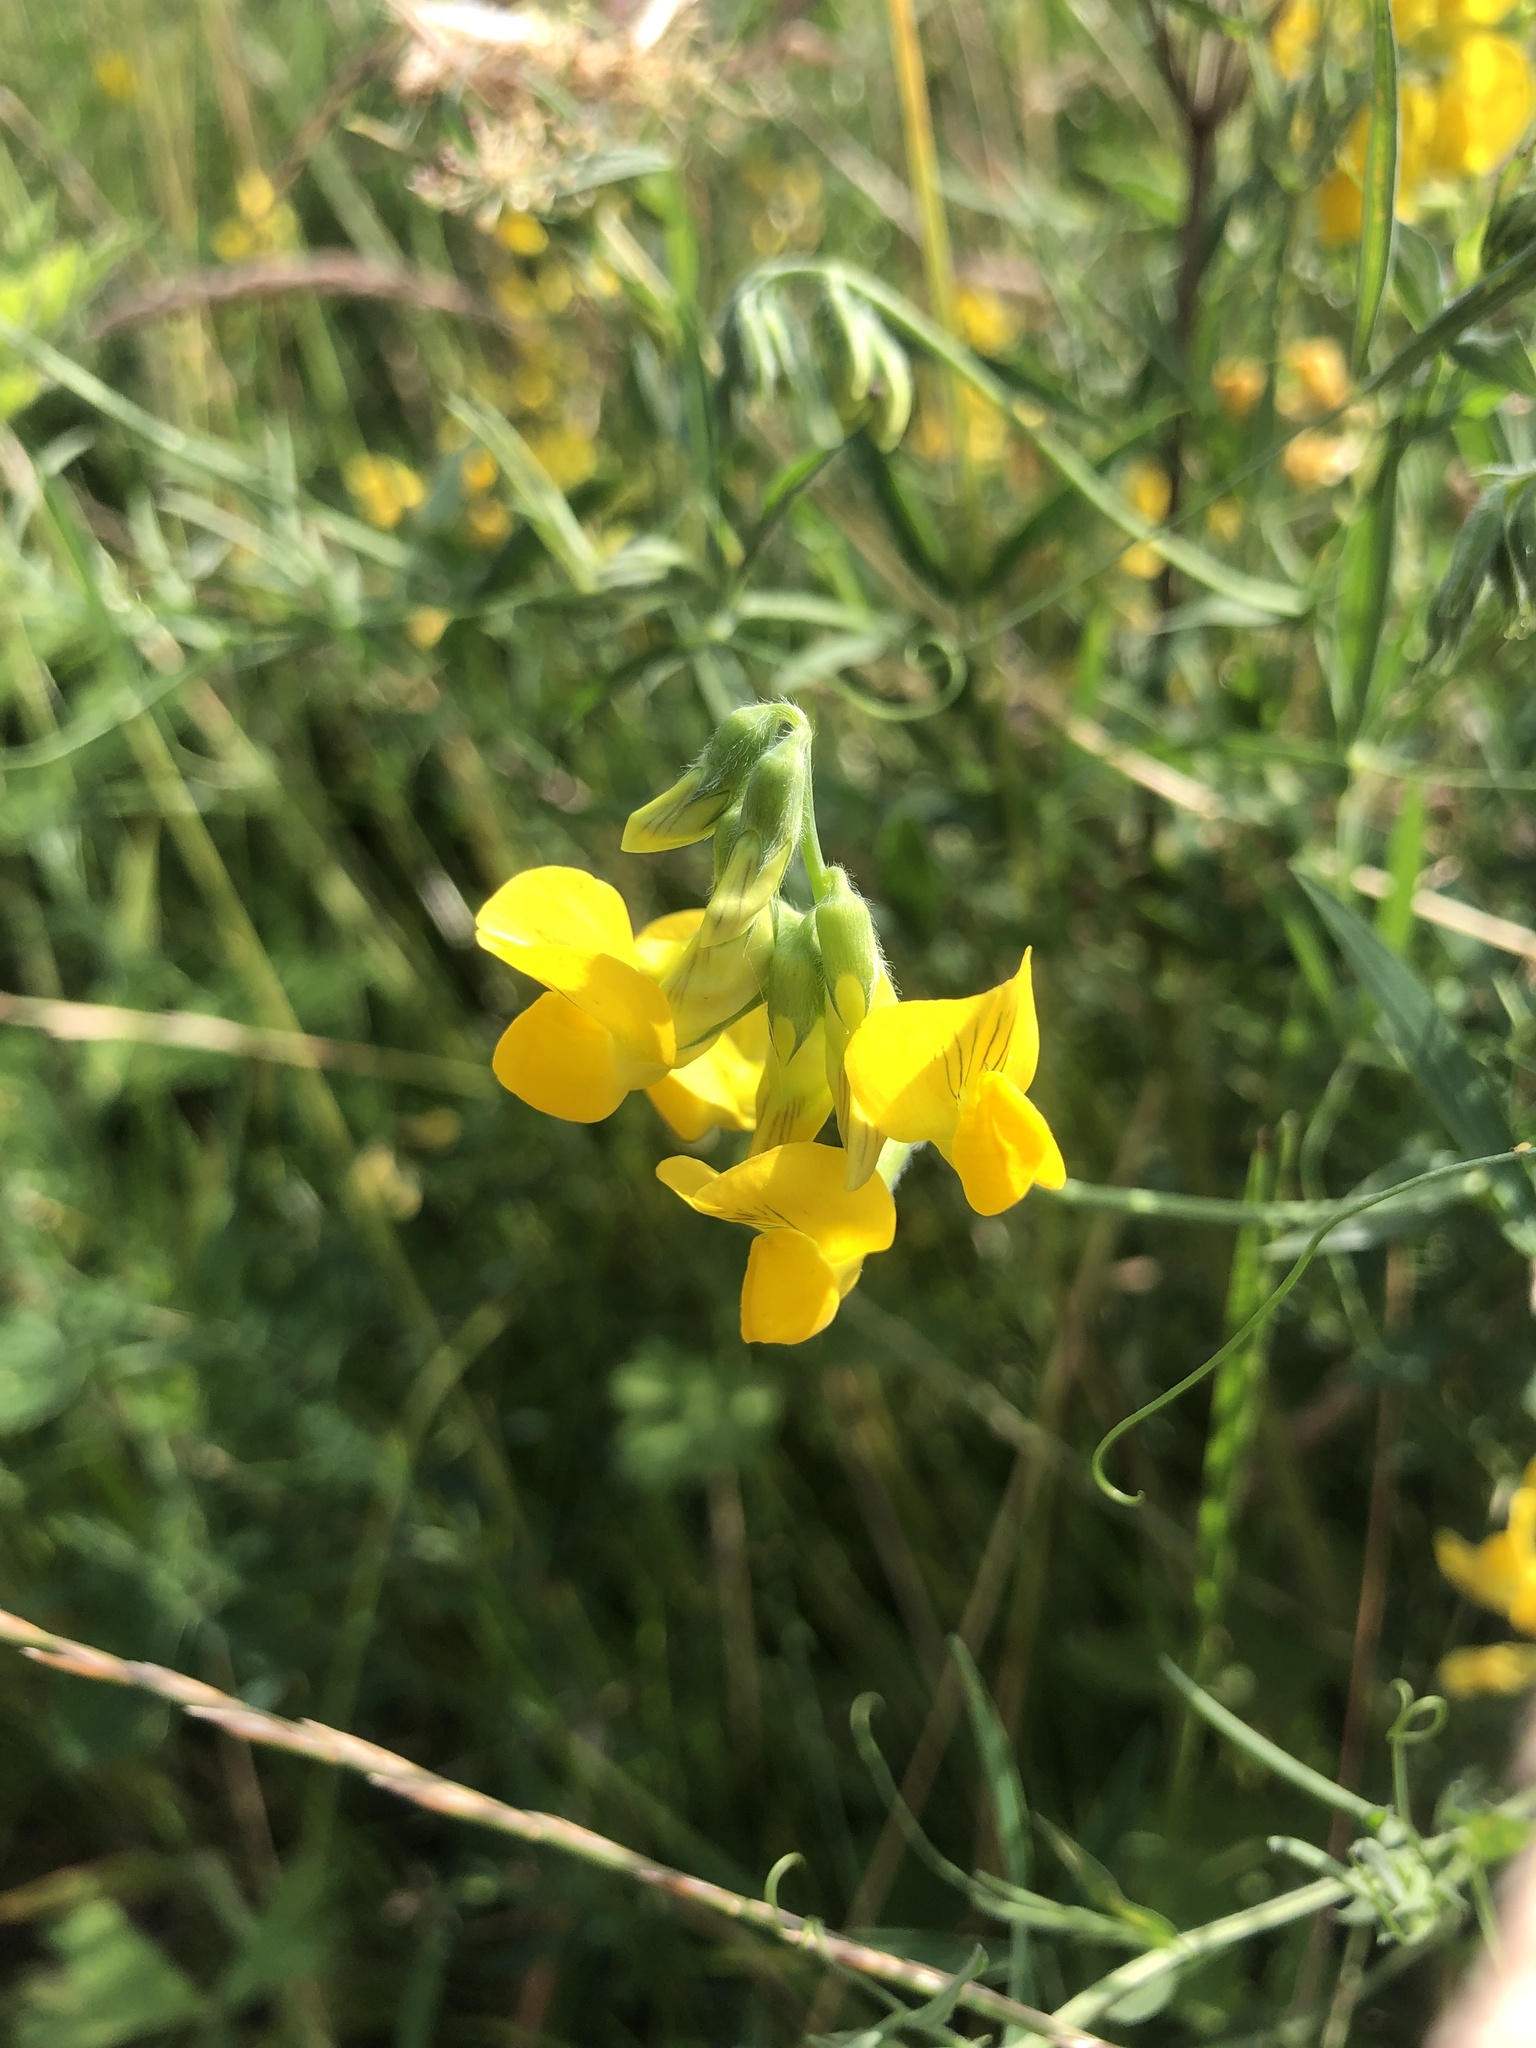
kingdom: Plantae
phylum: Tracheophyta
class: Magnoliopsida
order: Fabales
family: Fabaceae
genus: Lathyrus
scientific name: Lathyrus pratensis
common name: Meadow vetchling
